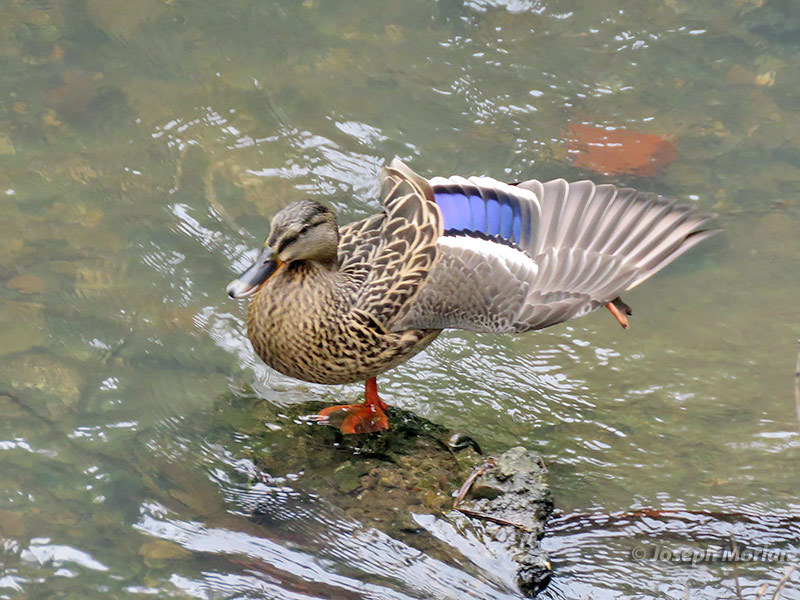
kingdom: Animalia
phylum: Chordata
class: Aves
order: Anseriformes
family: Anatidae
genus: Anas
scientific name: Anas platyrhynchos
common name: Mallard
